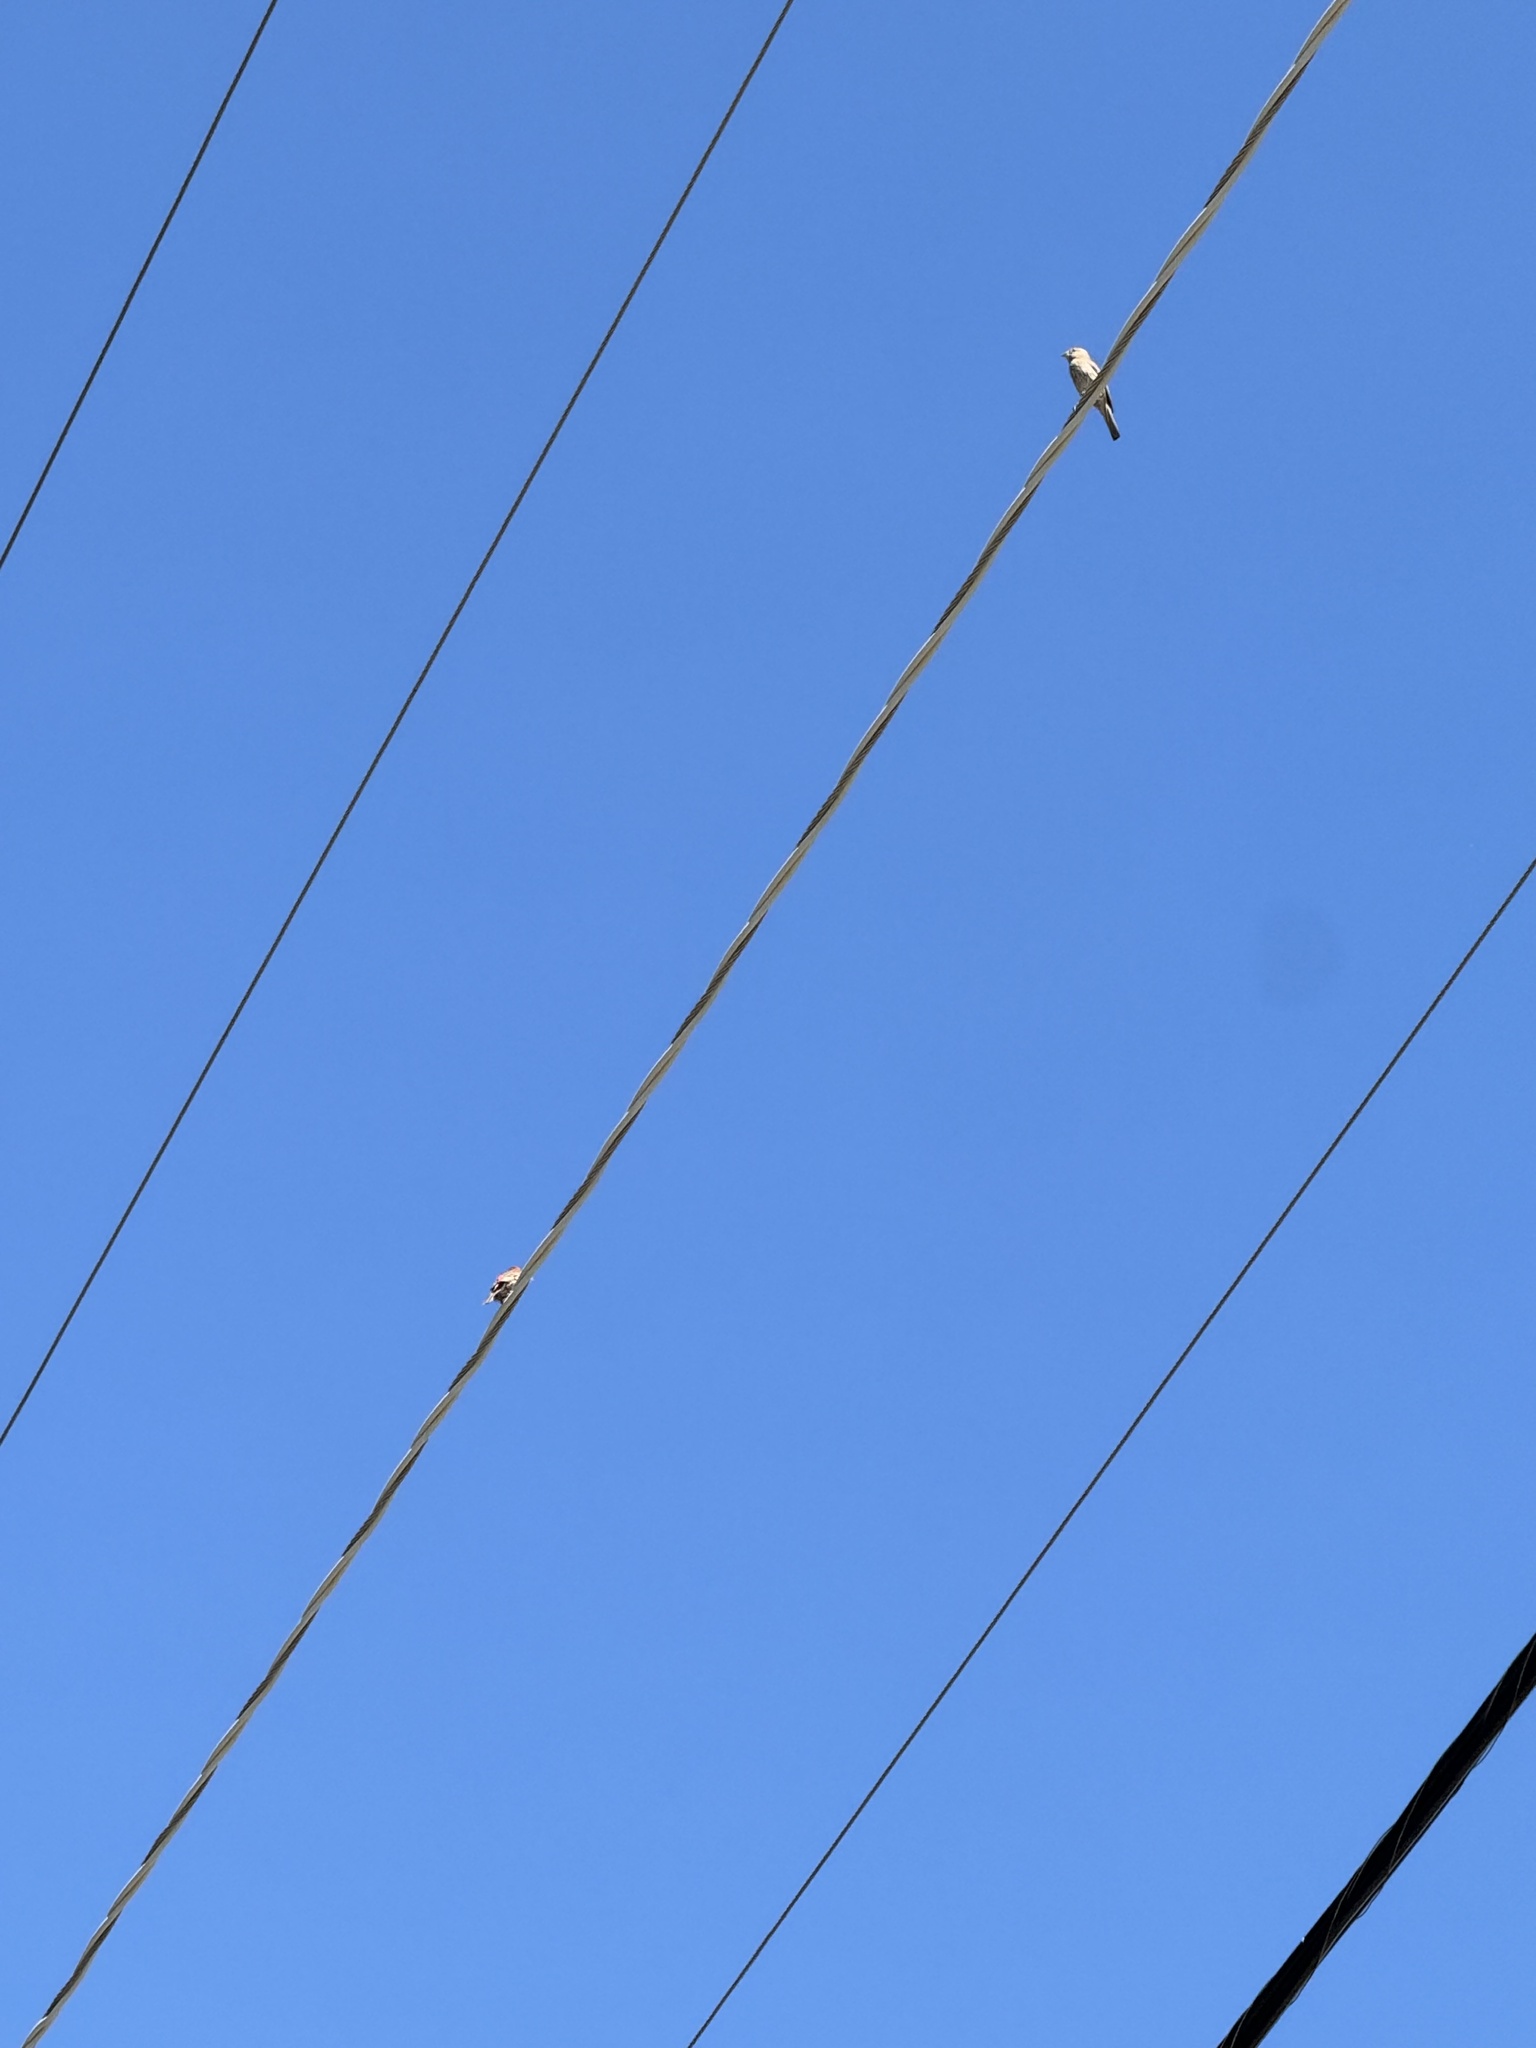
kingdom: Animalia
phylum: Chordata
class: Aves
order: Passeriformes
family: Fringillidae
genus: Haemorhous
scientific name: Haemorhous mexicanus
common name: House finch
